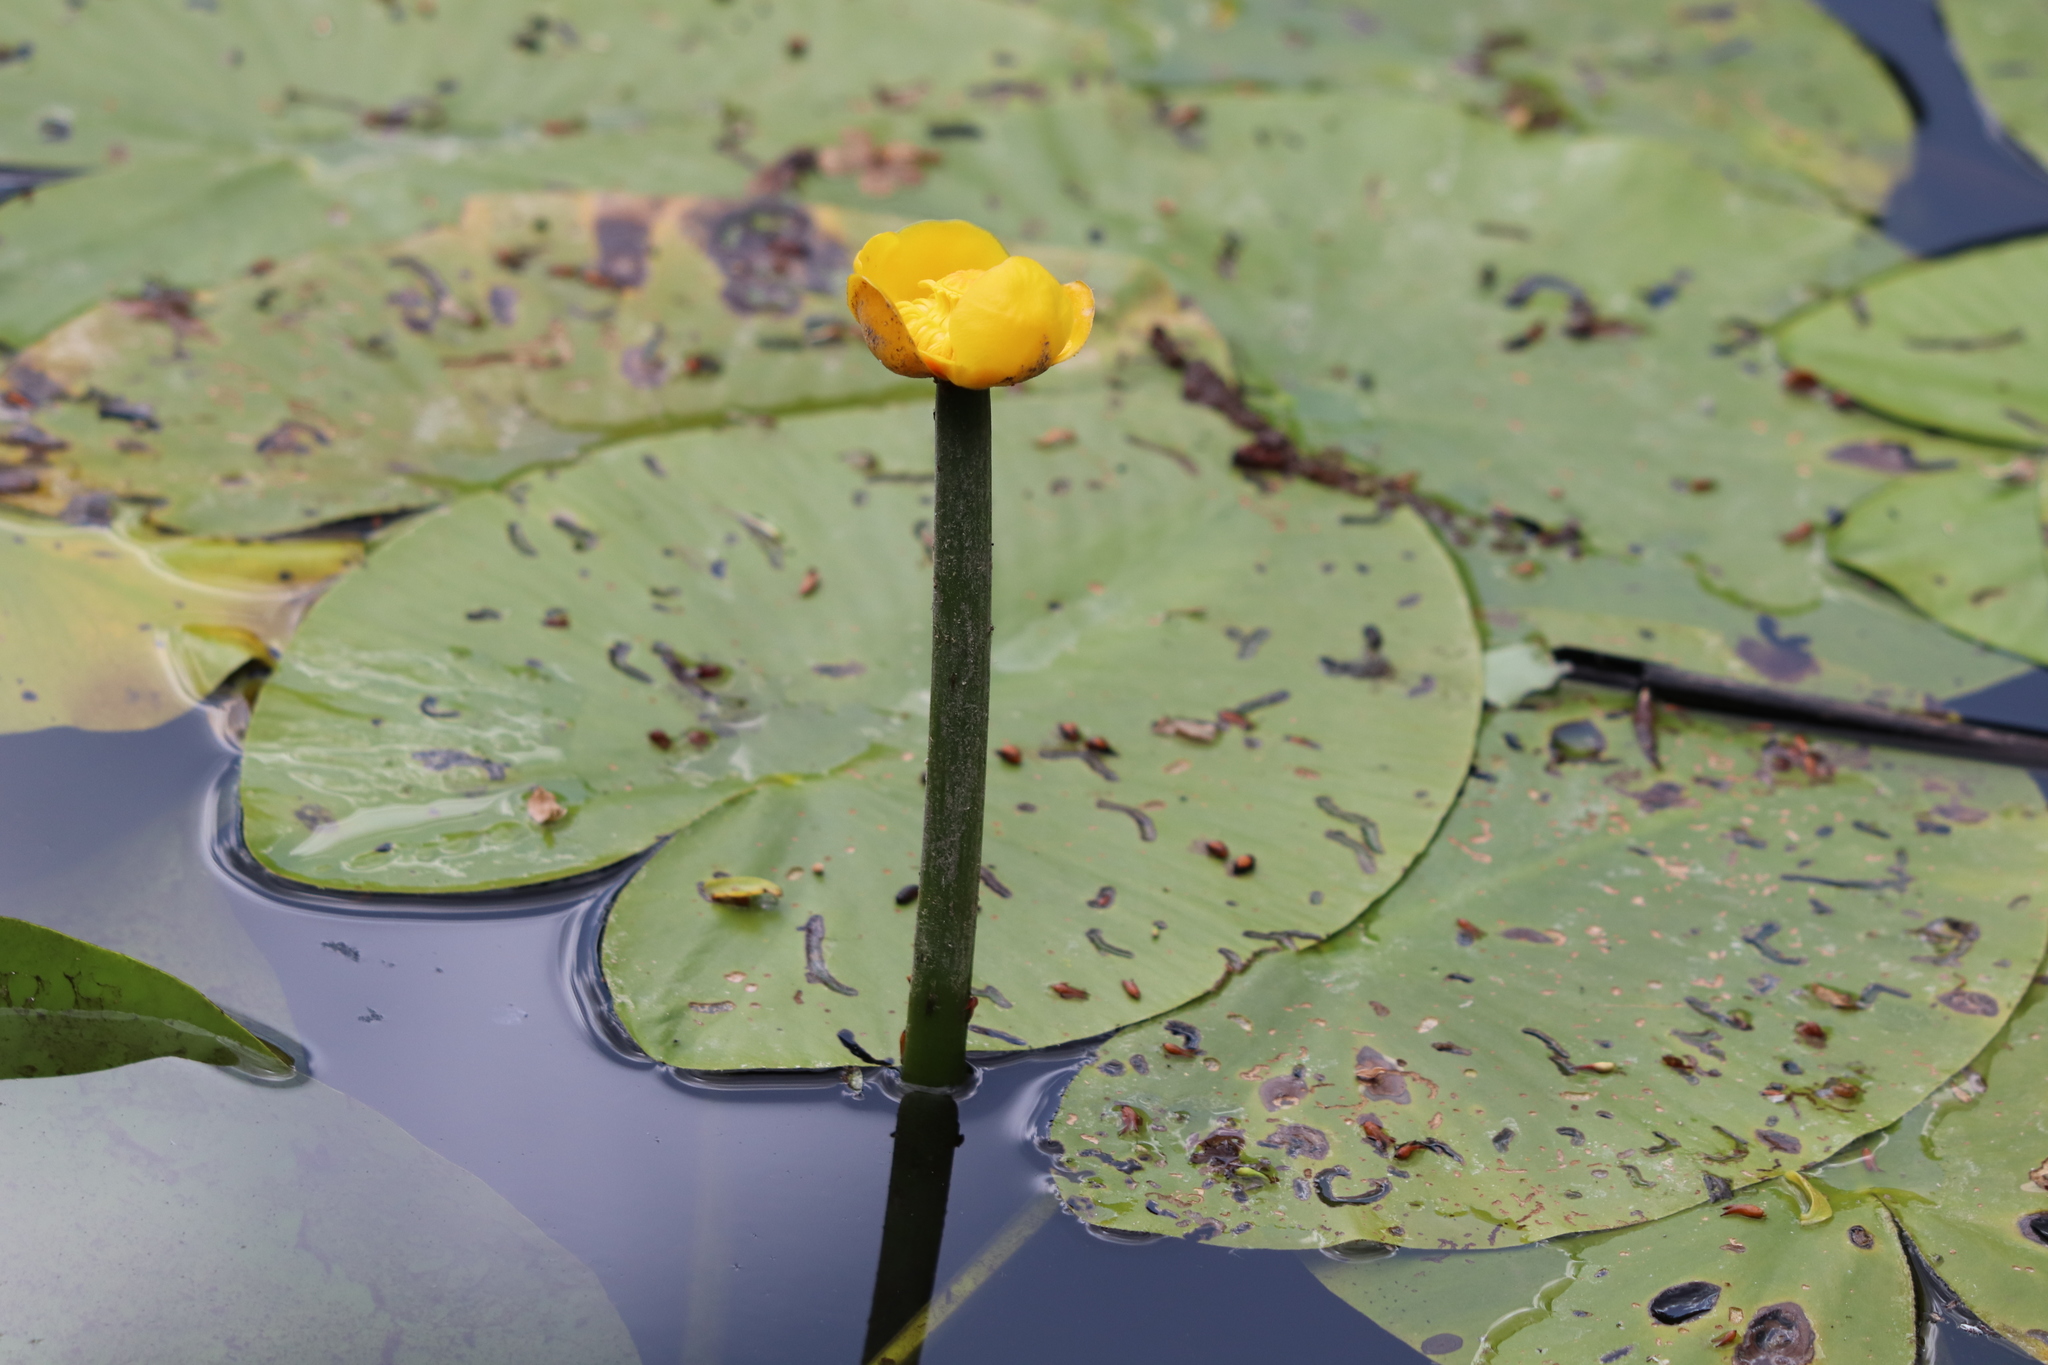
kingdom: Plantae
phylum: Tracheophyta
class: Magnoliopsida
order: Nymphaeales
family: Nymphaeaceae
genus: Nuphar
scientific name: Nuphar lutea
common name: Yellow water-lily
